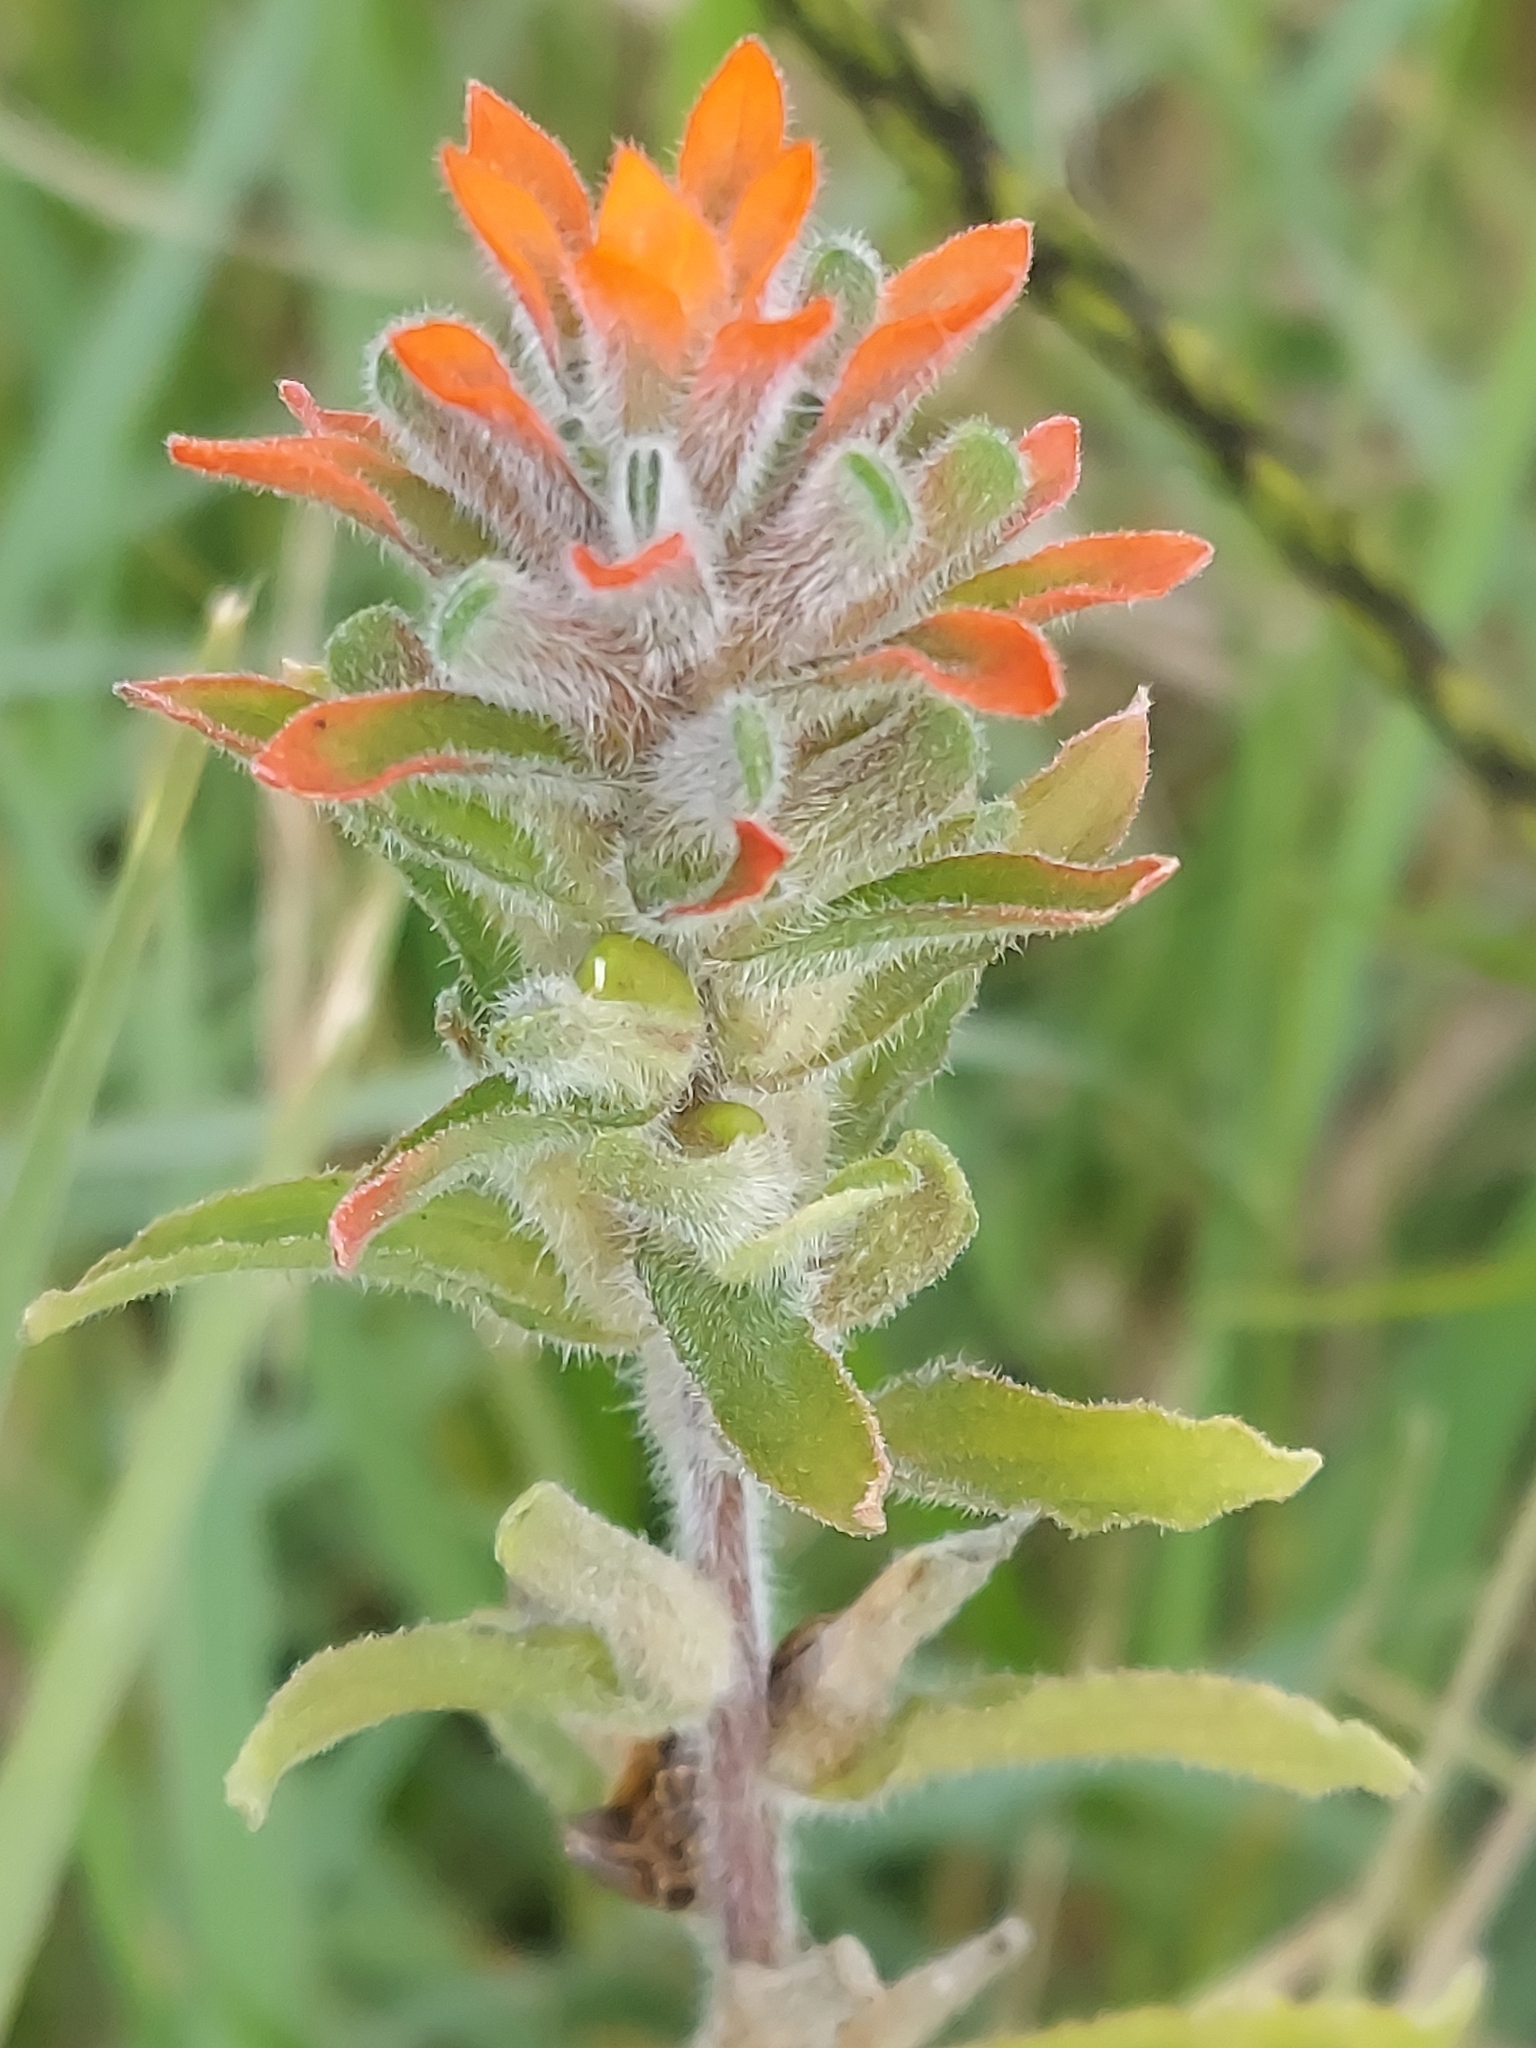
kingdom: Plantae
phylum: Tracheophyta
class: Magnoliopsida
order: Lamiales
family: Orobanchaceae
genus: Castilleja
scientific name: Castilleja arvensis
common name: Indian paintbrush
